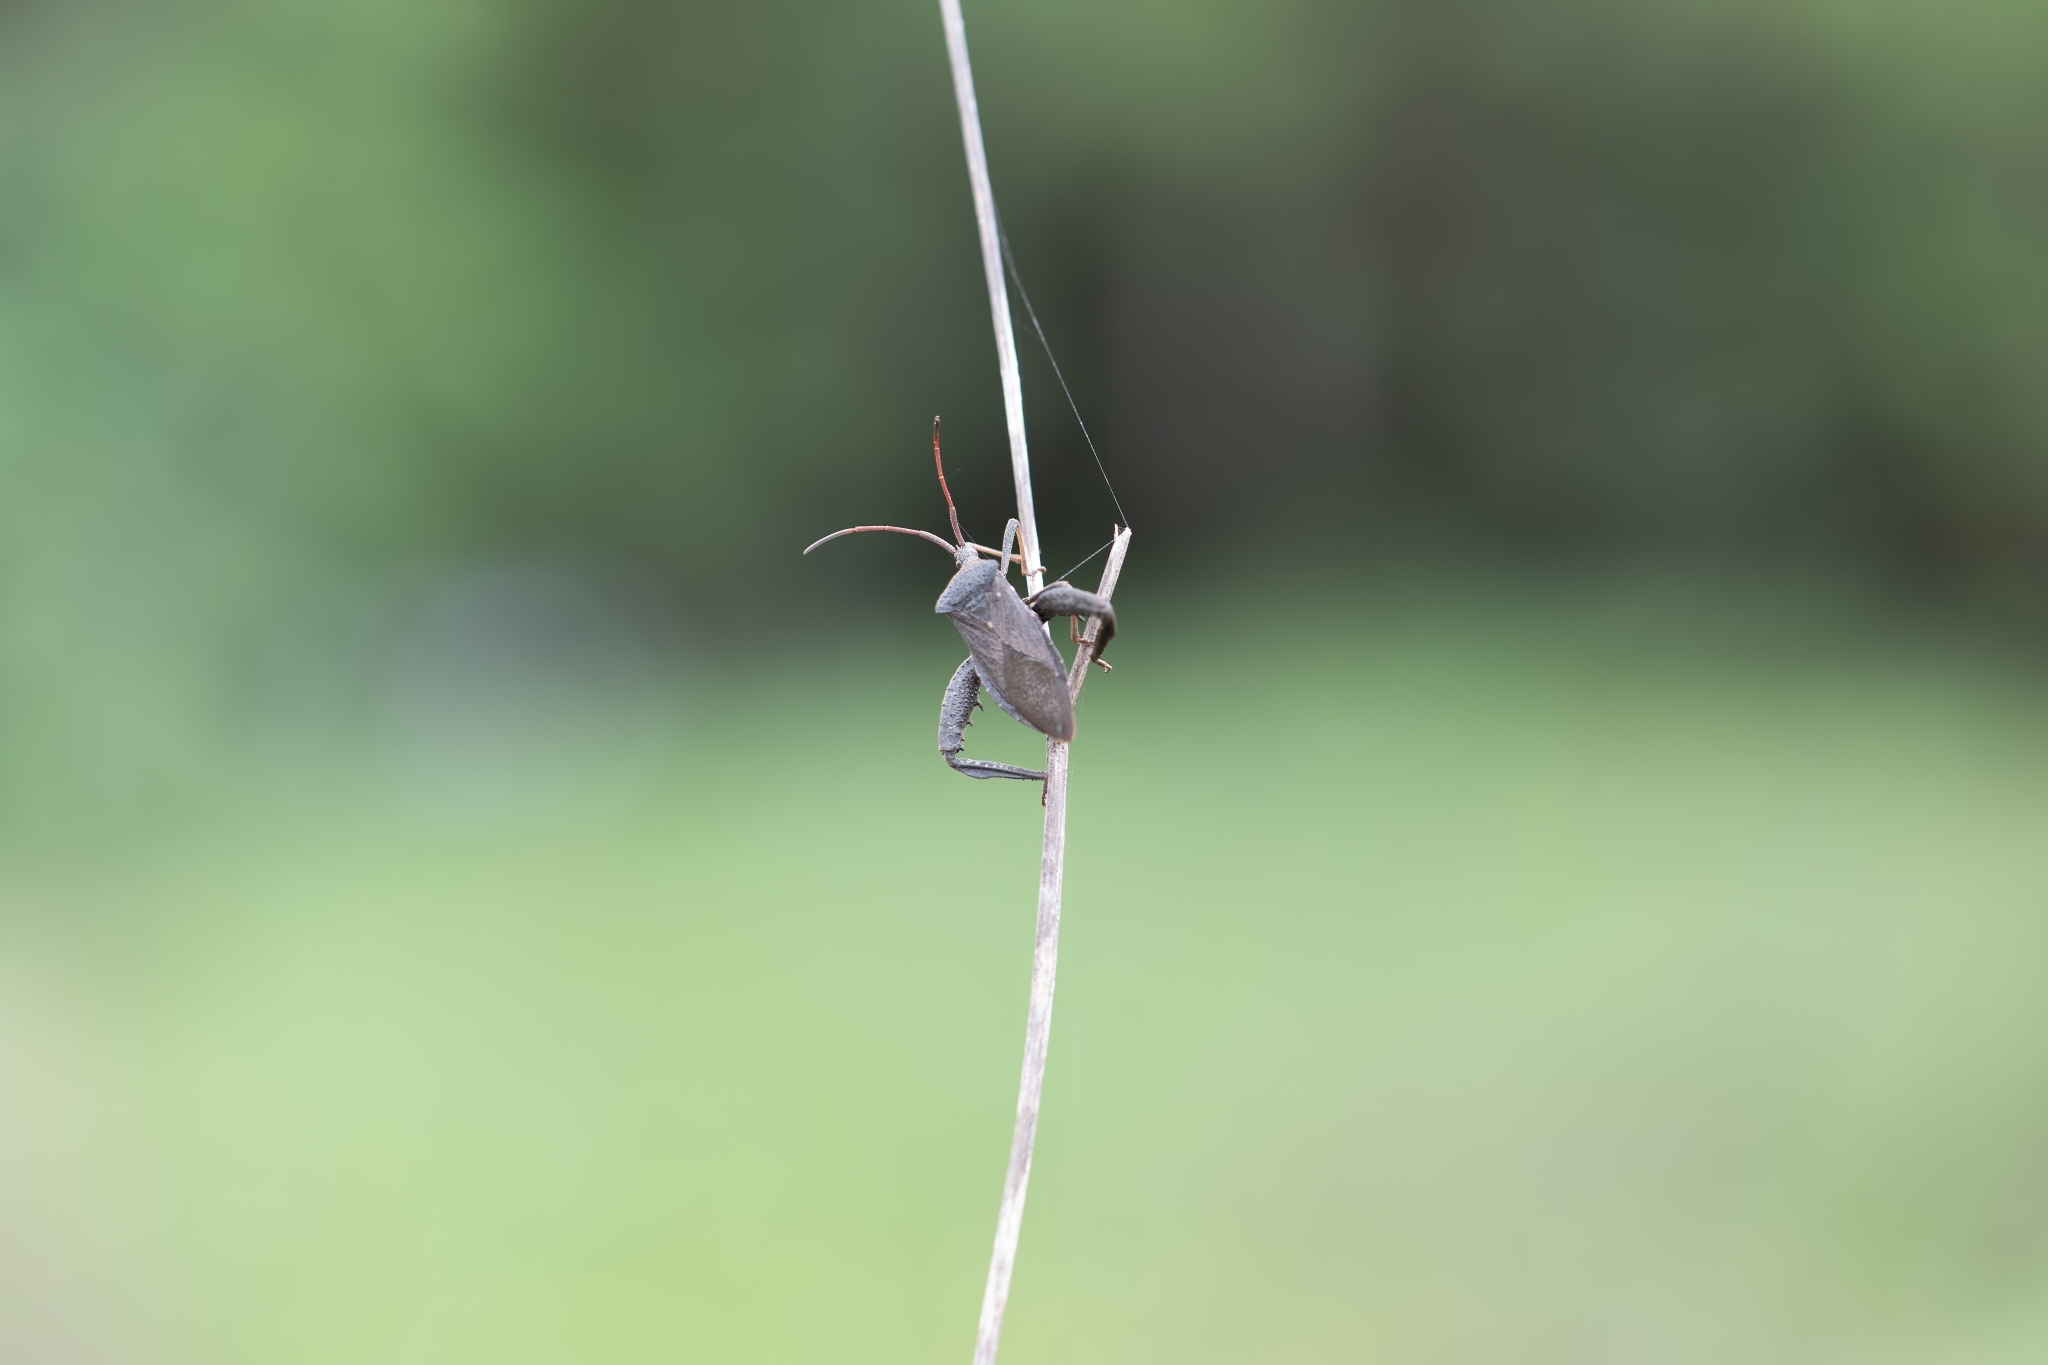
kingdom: Animalia
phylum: Arthropoda
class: Insecta
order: Hemiptera
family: Coreidae
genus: Acanthocephala
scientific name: Acanthocephala femorata
